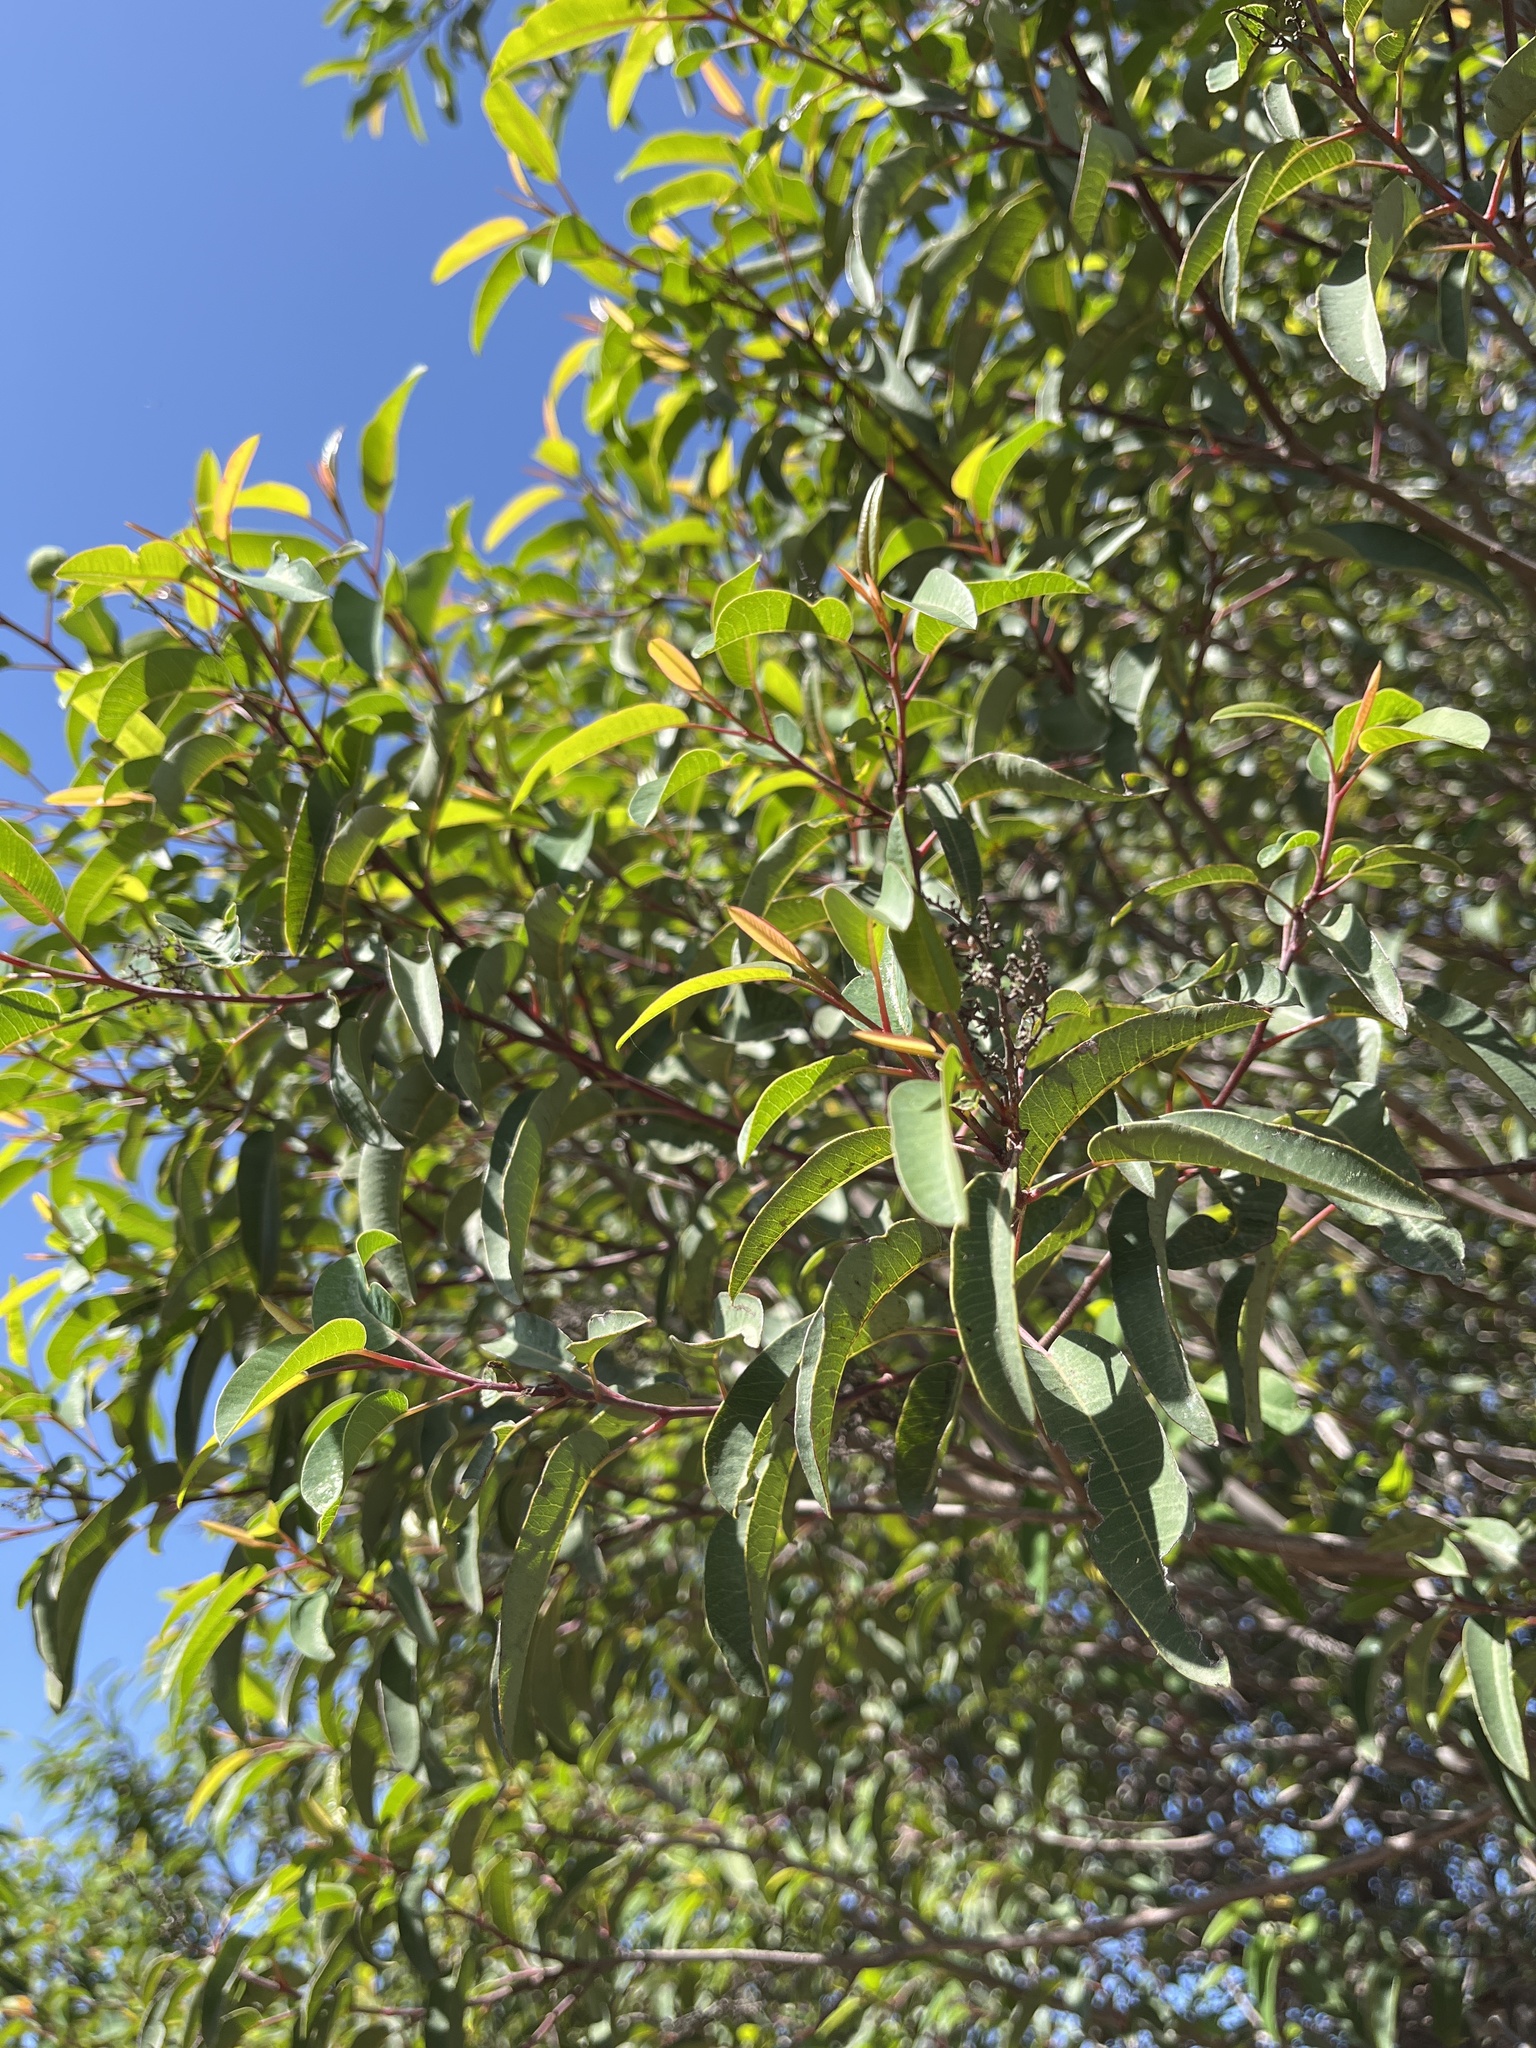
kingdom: Plantae
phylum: Tracheophyta
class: Magnoliopsida
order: Sapindales
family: Anacardiaceae
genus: Malosma
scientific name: Malosma laurina
